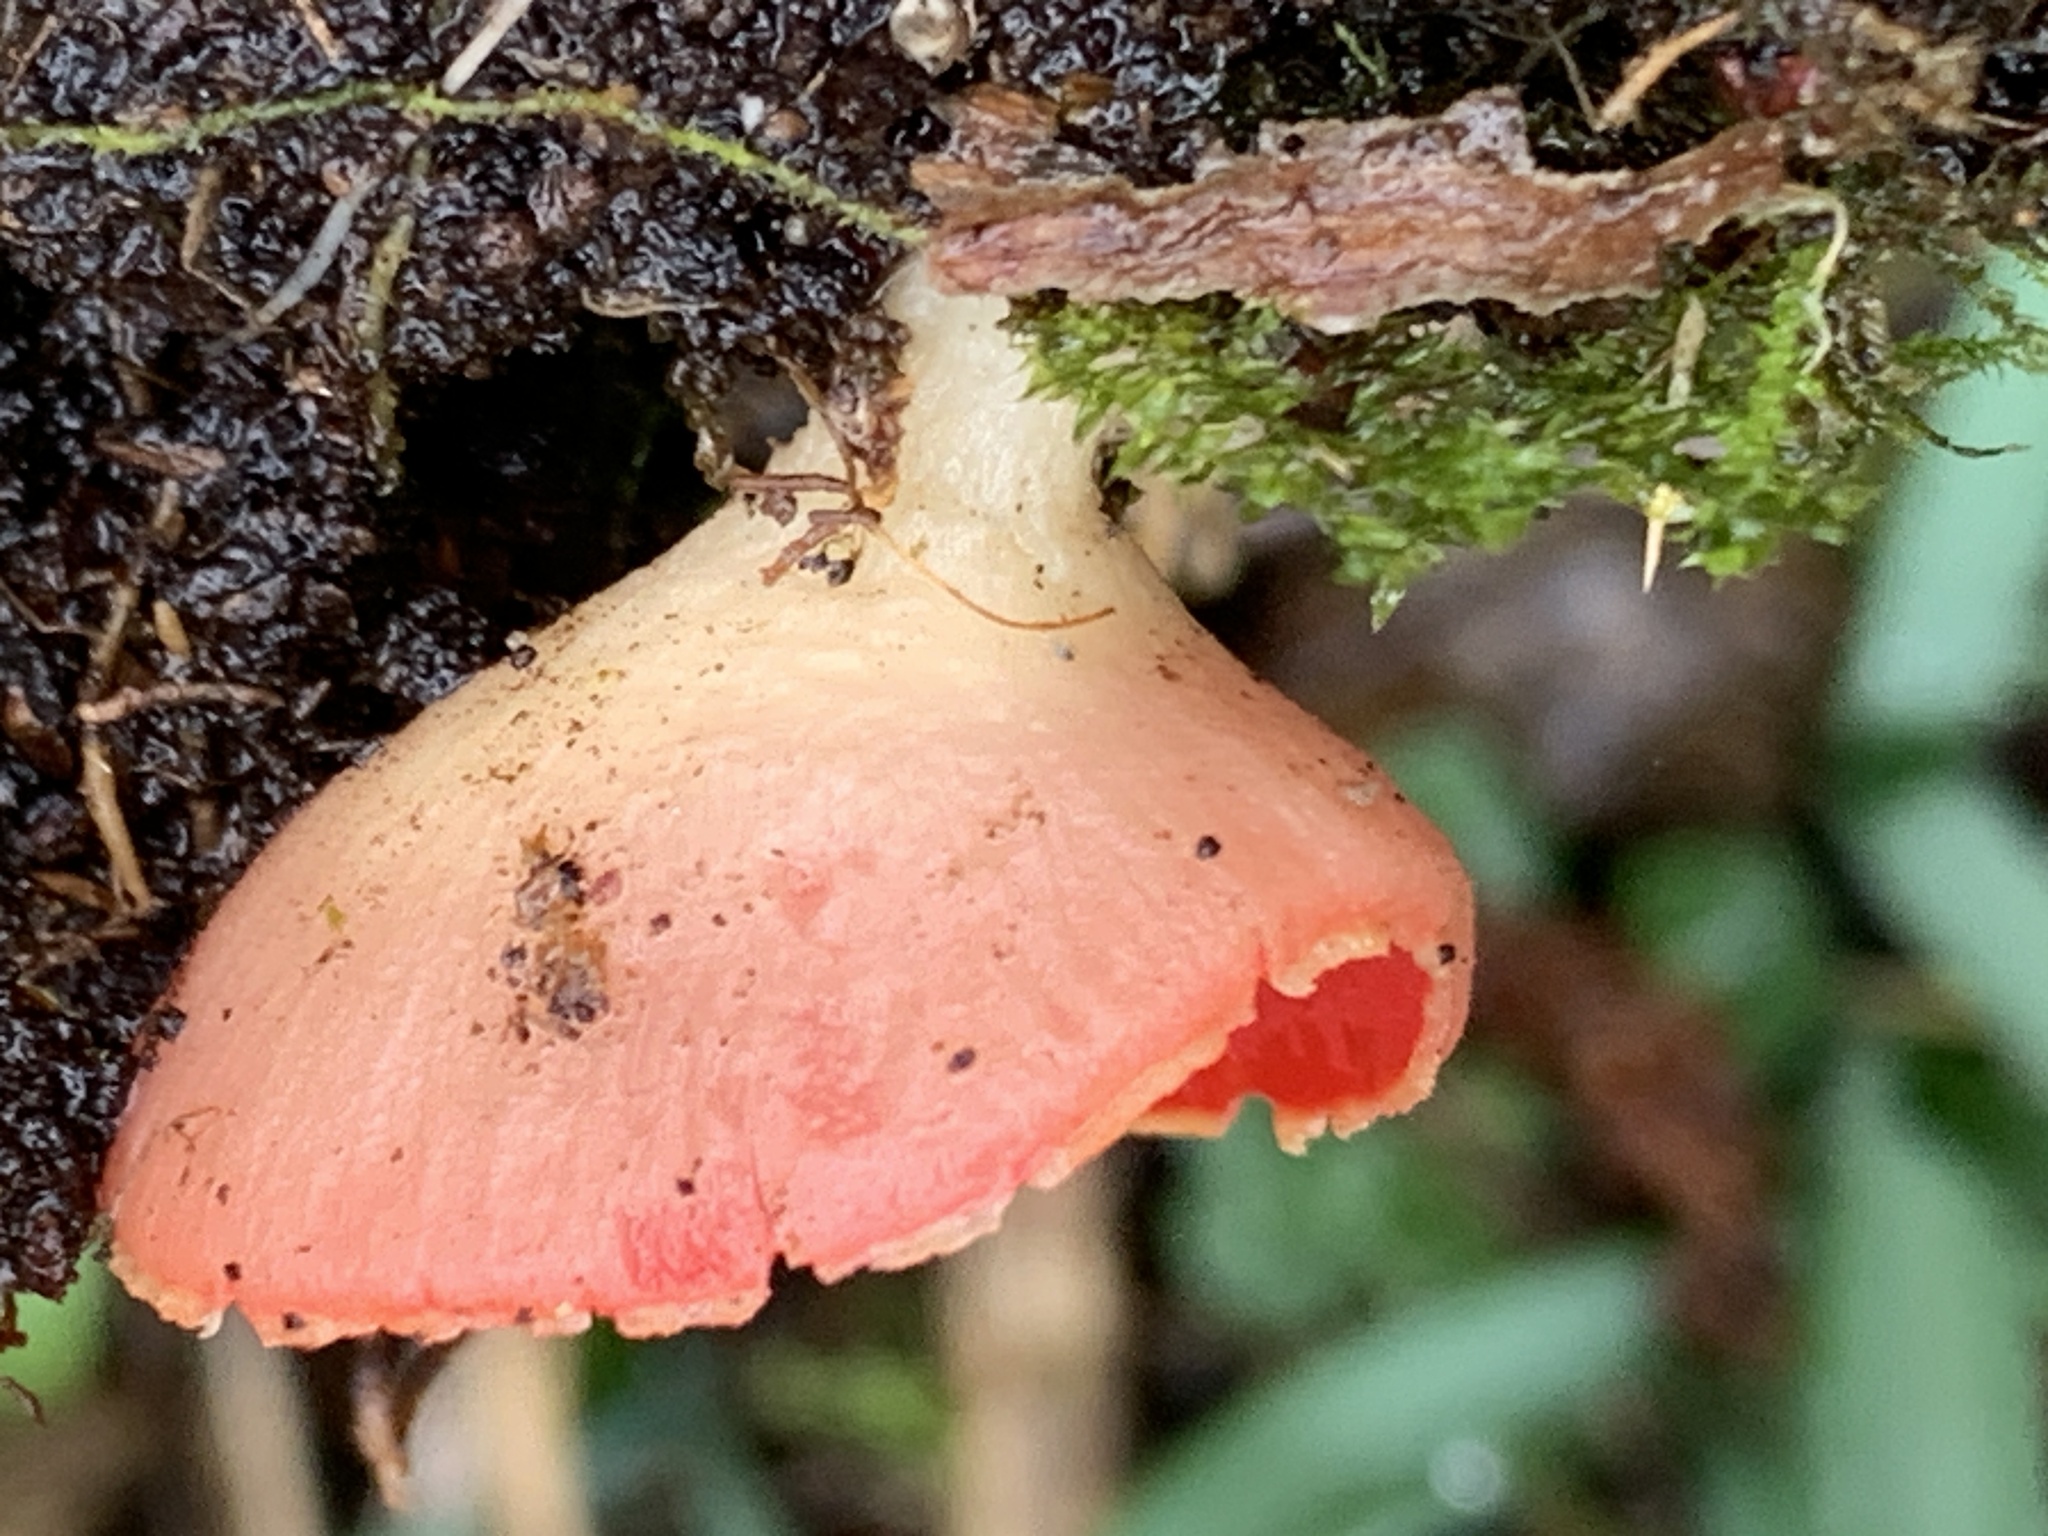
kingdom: Fungi
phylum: Ascomycota
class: Pezizomycetes
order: Pezizales
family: Sarcoscyphaceae
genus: Sarcoscypha
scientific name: Sarcoscypha
